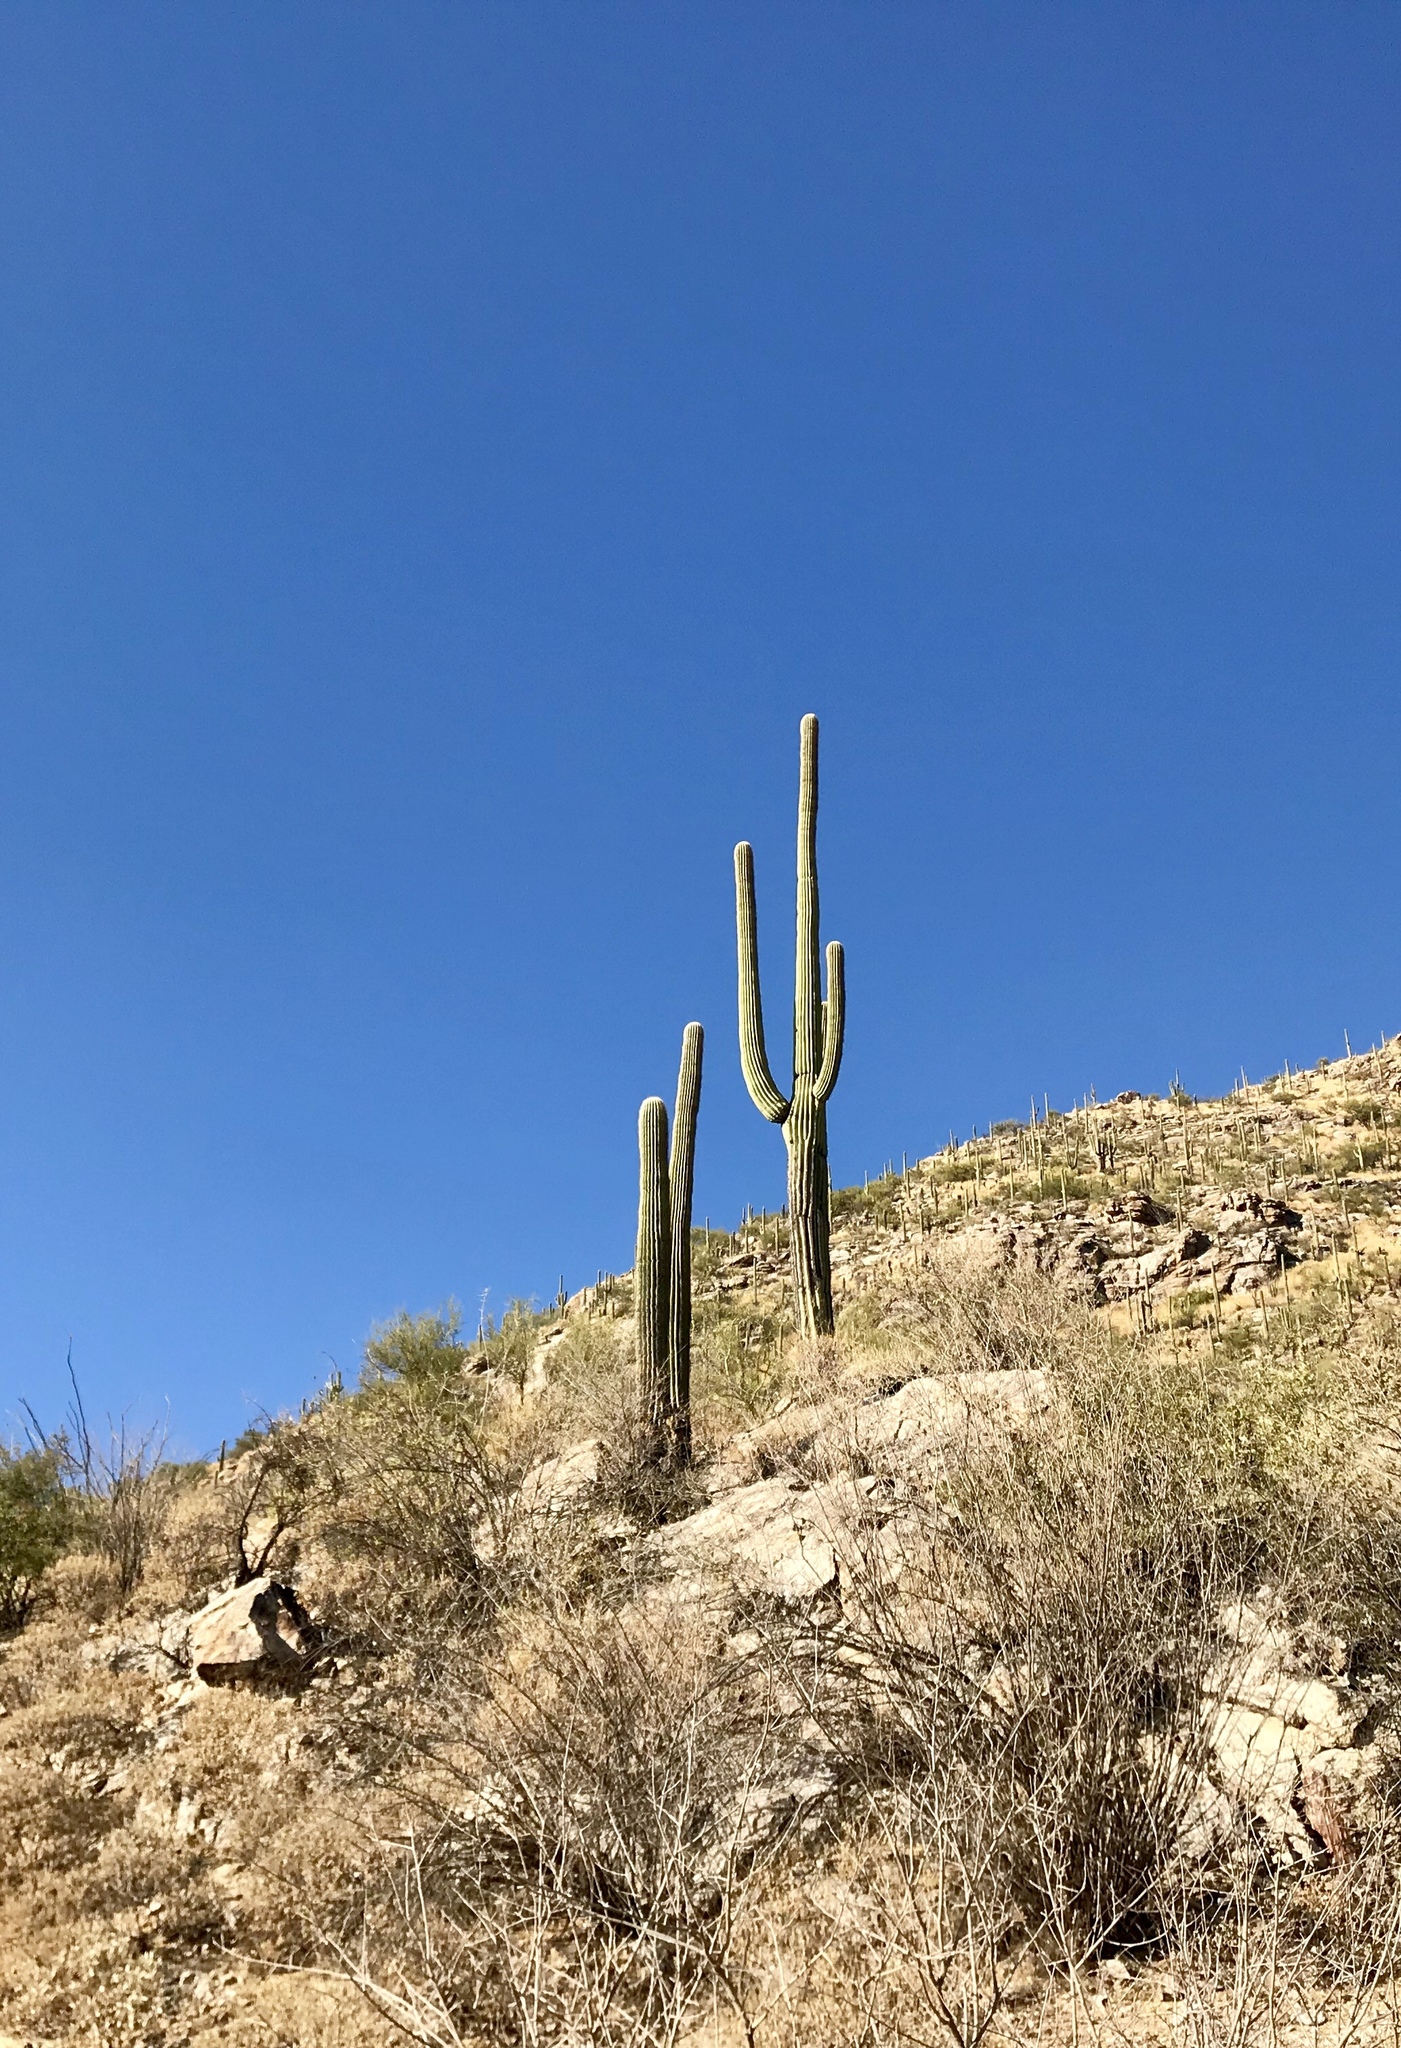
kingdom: Plantae
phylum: Tracheophyta
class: Magnoliopsida
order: Caryophyllales
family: Cactaceae
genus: Carnegiea
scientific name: Carnegiea gigantea
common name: Saguaro
